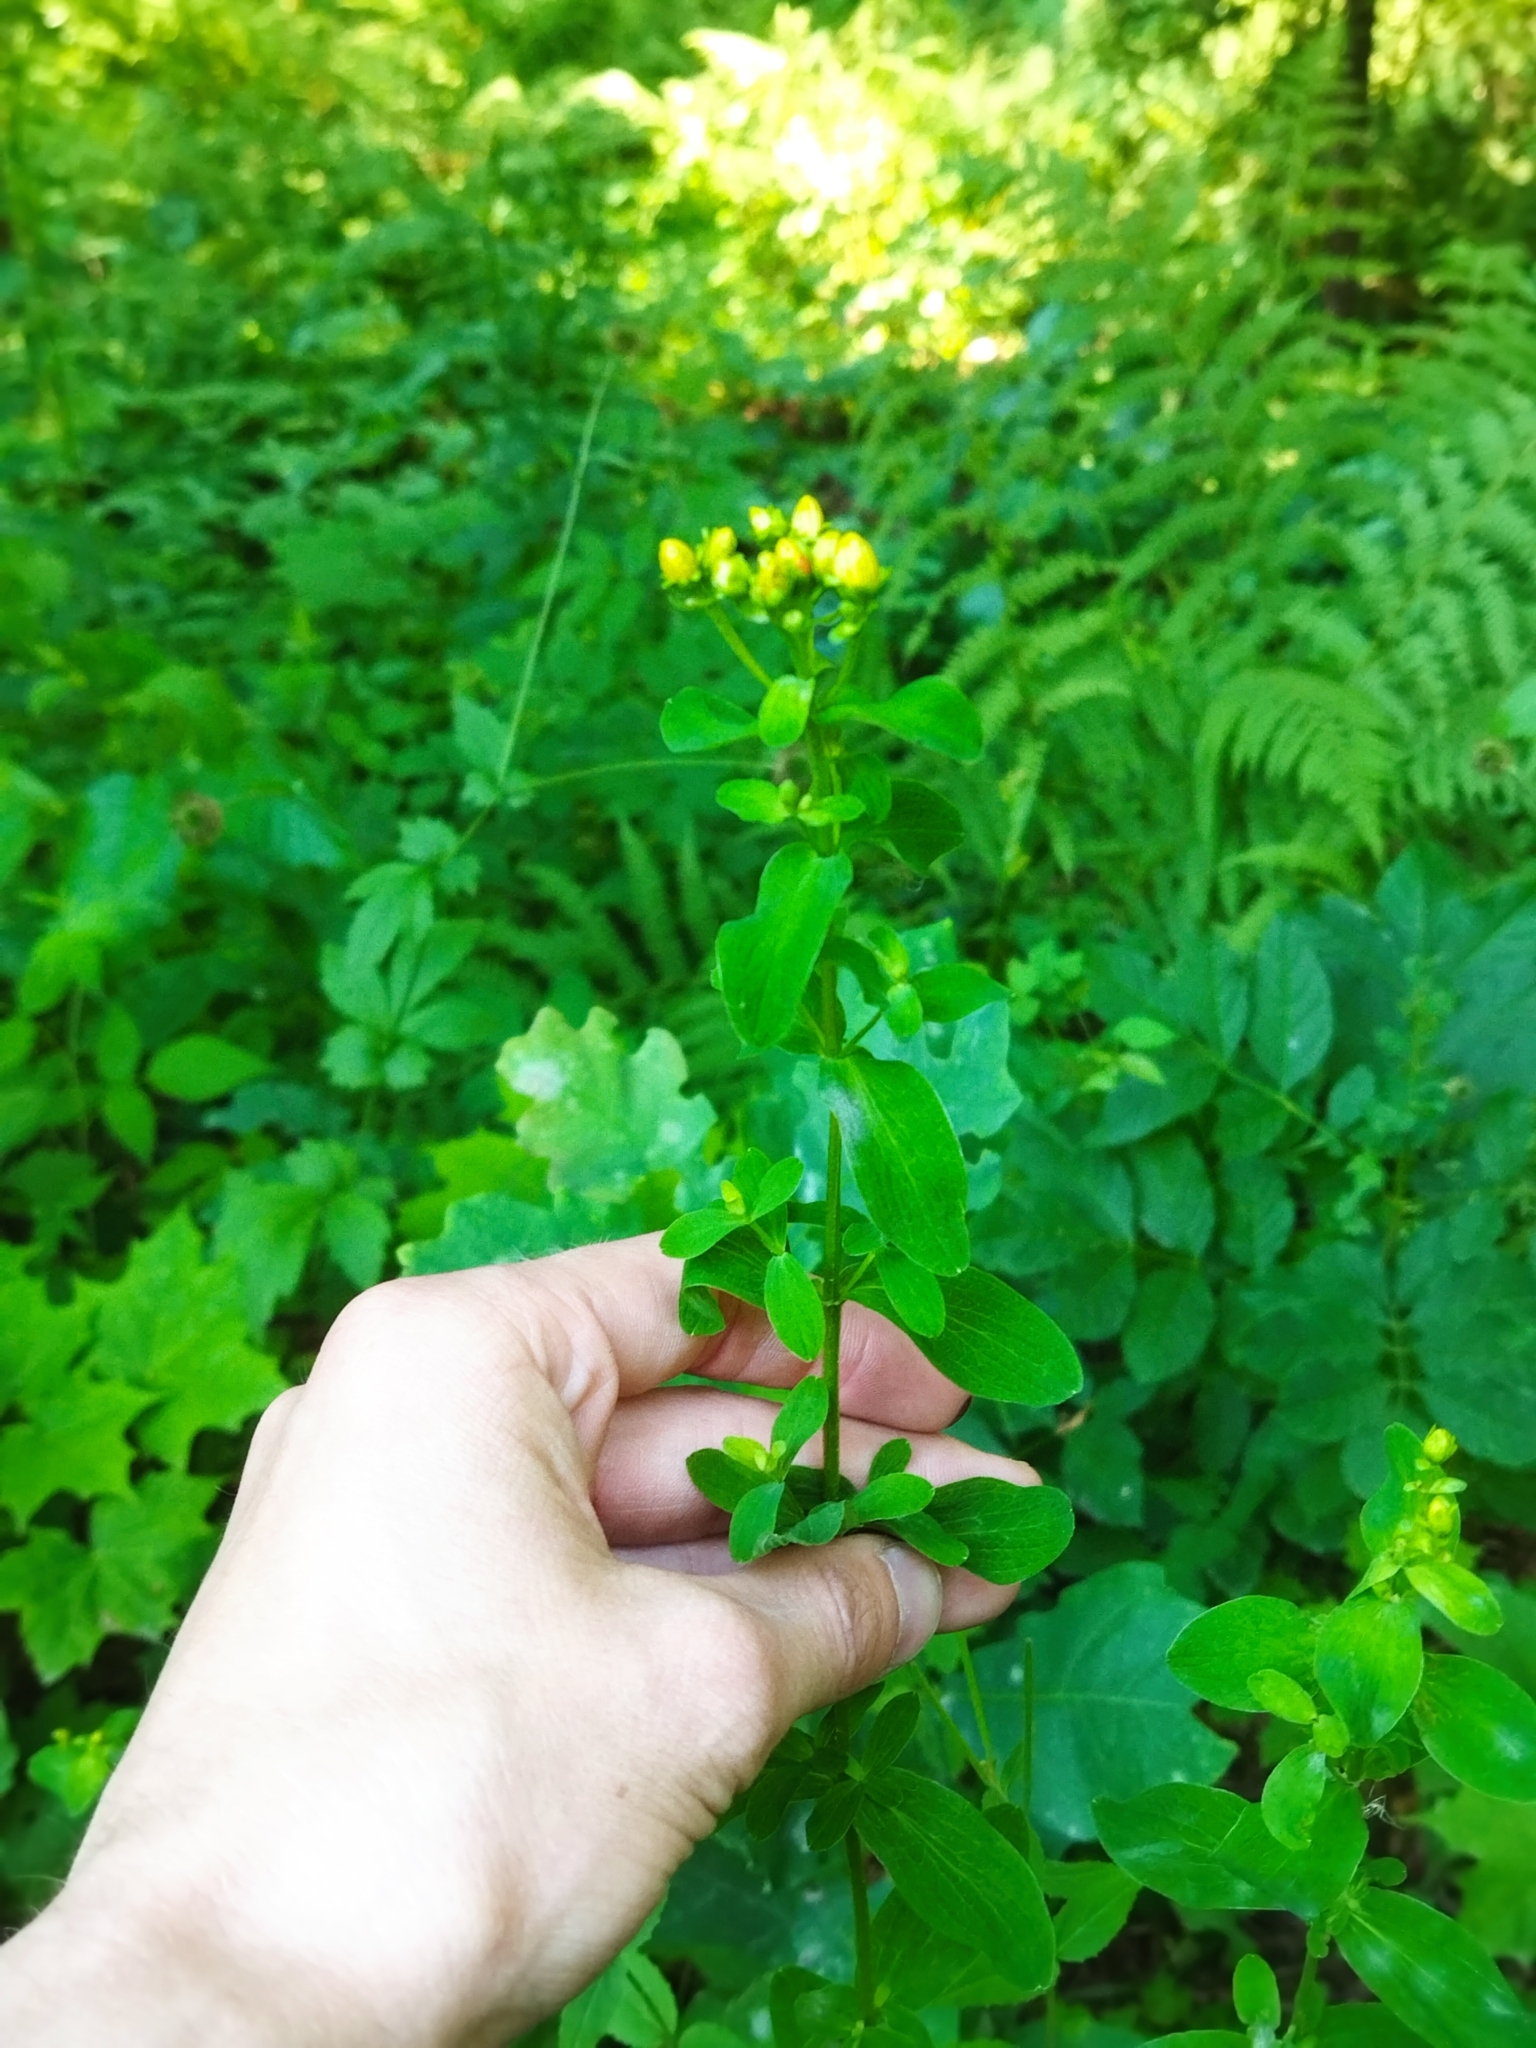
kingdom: Plantae
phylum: Tracheophyta
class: Magnoliopsida
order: Malpighiales
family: Hypericaceae
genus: Hypericum
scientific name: Hypericum maculatum
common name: Imperforate st. john's-wort
